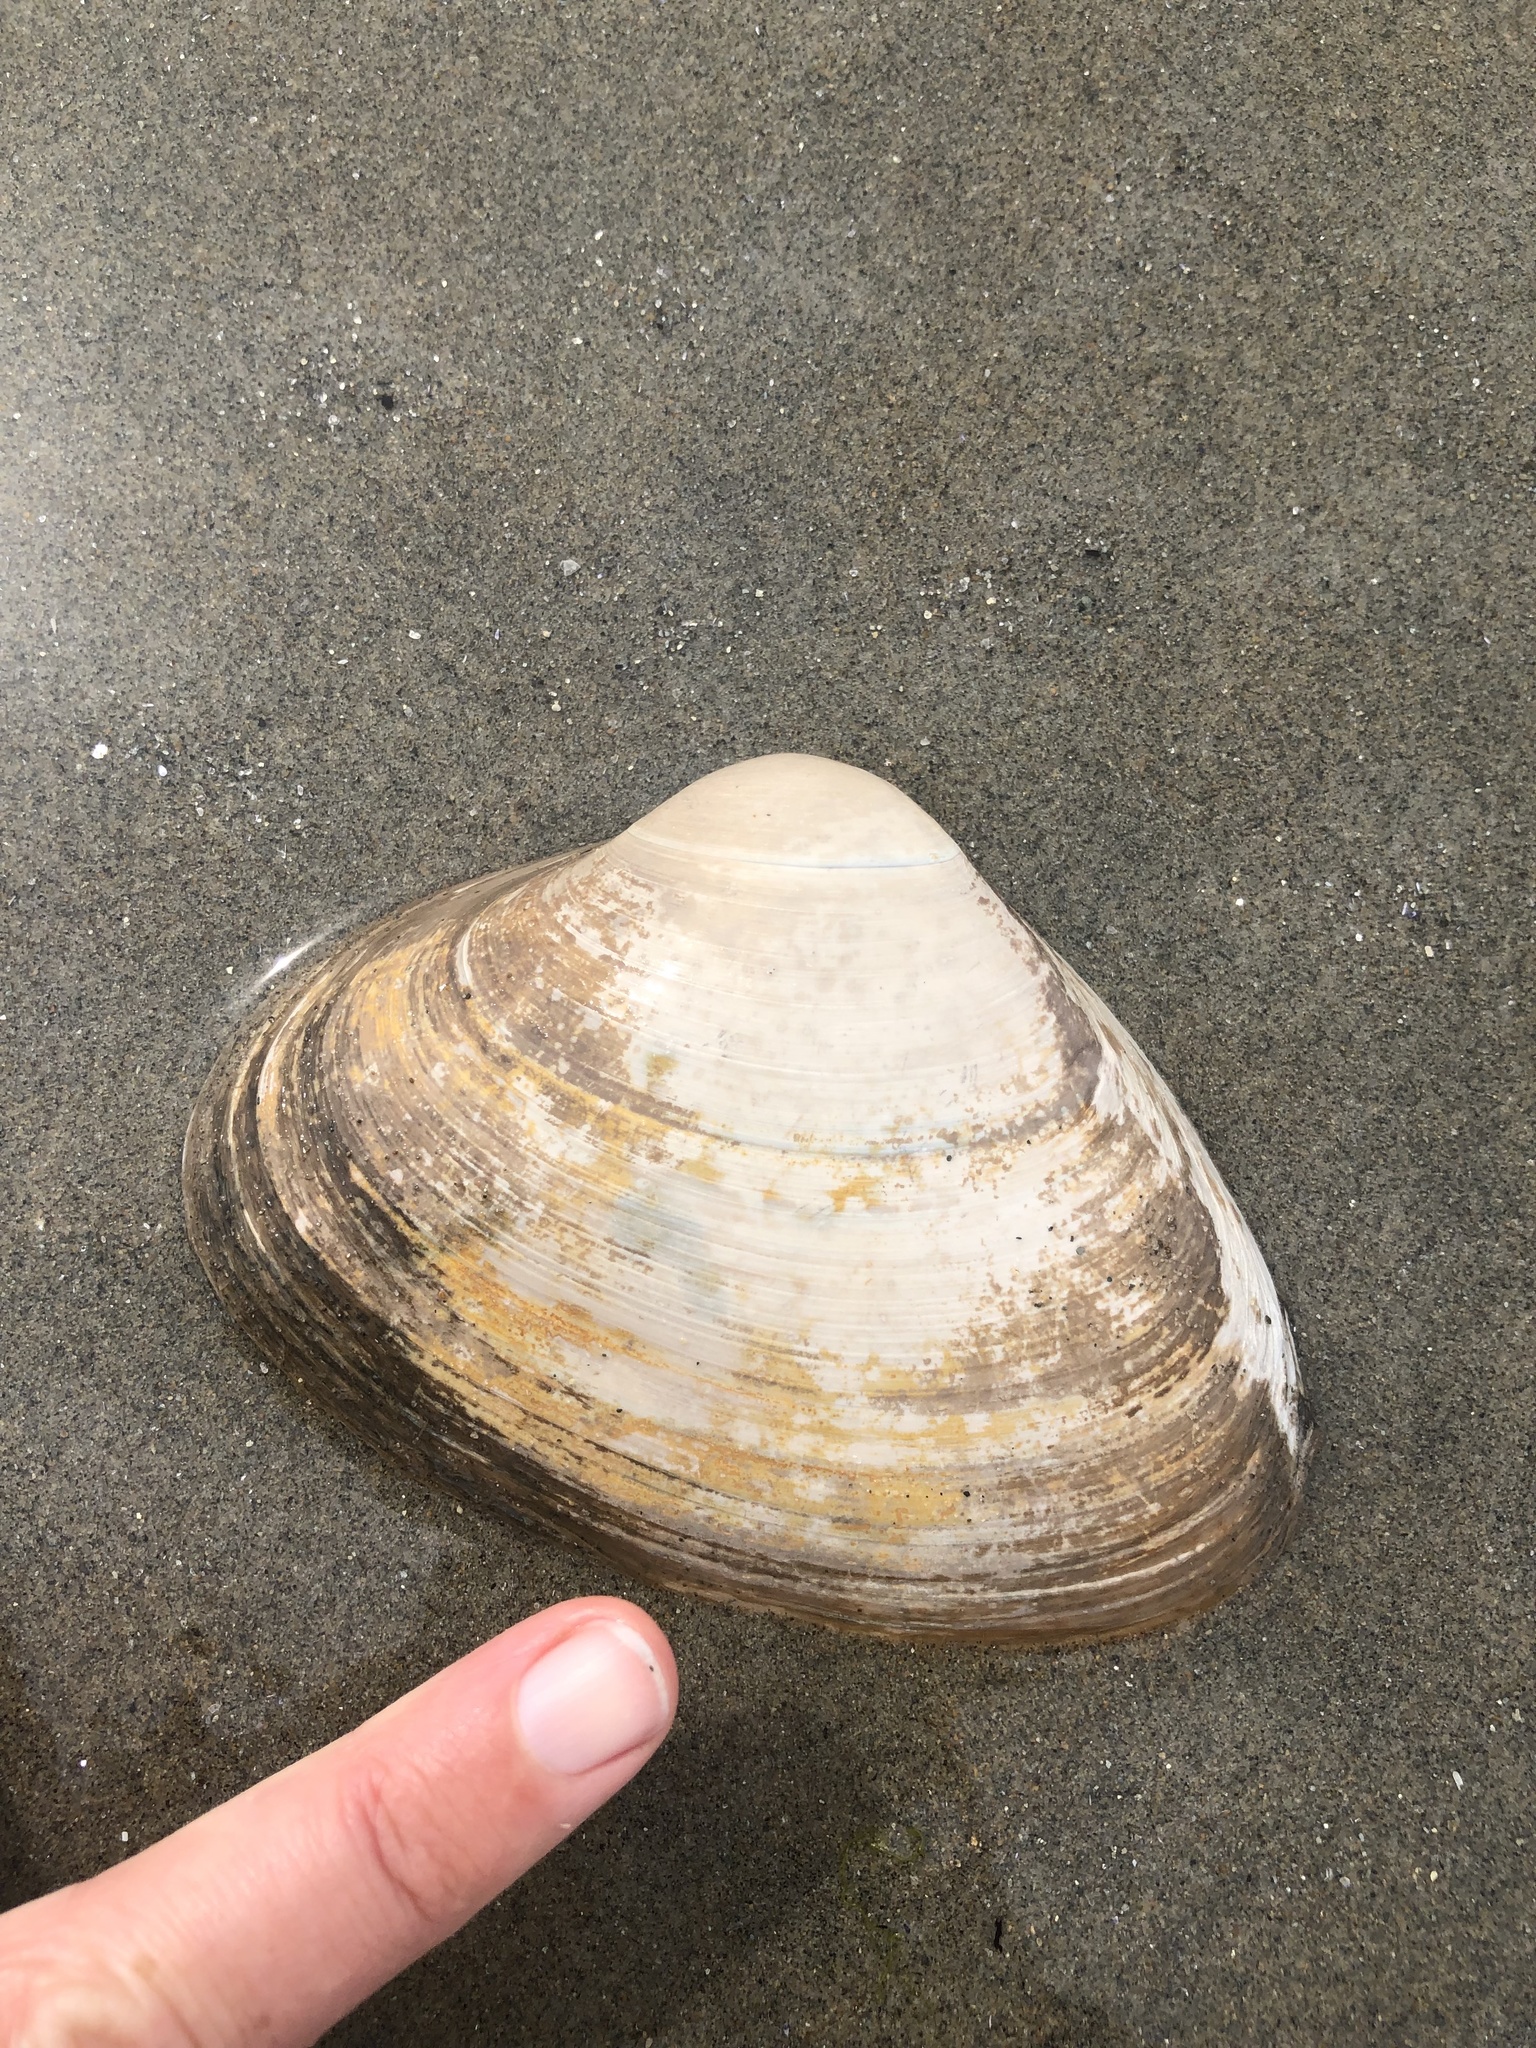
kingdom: Animalia
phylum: Mollusca
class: Bivalvia
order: Venerida
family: Mactridae
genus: Spisula
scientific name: Spisula solidissima
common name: Atlantic surf clam
